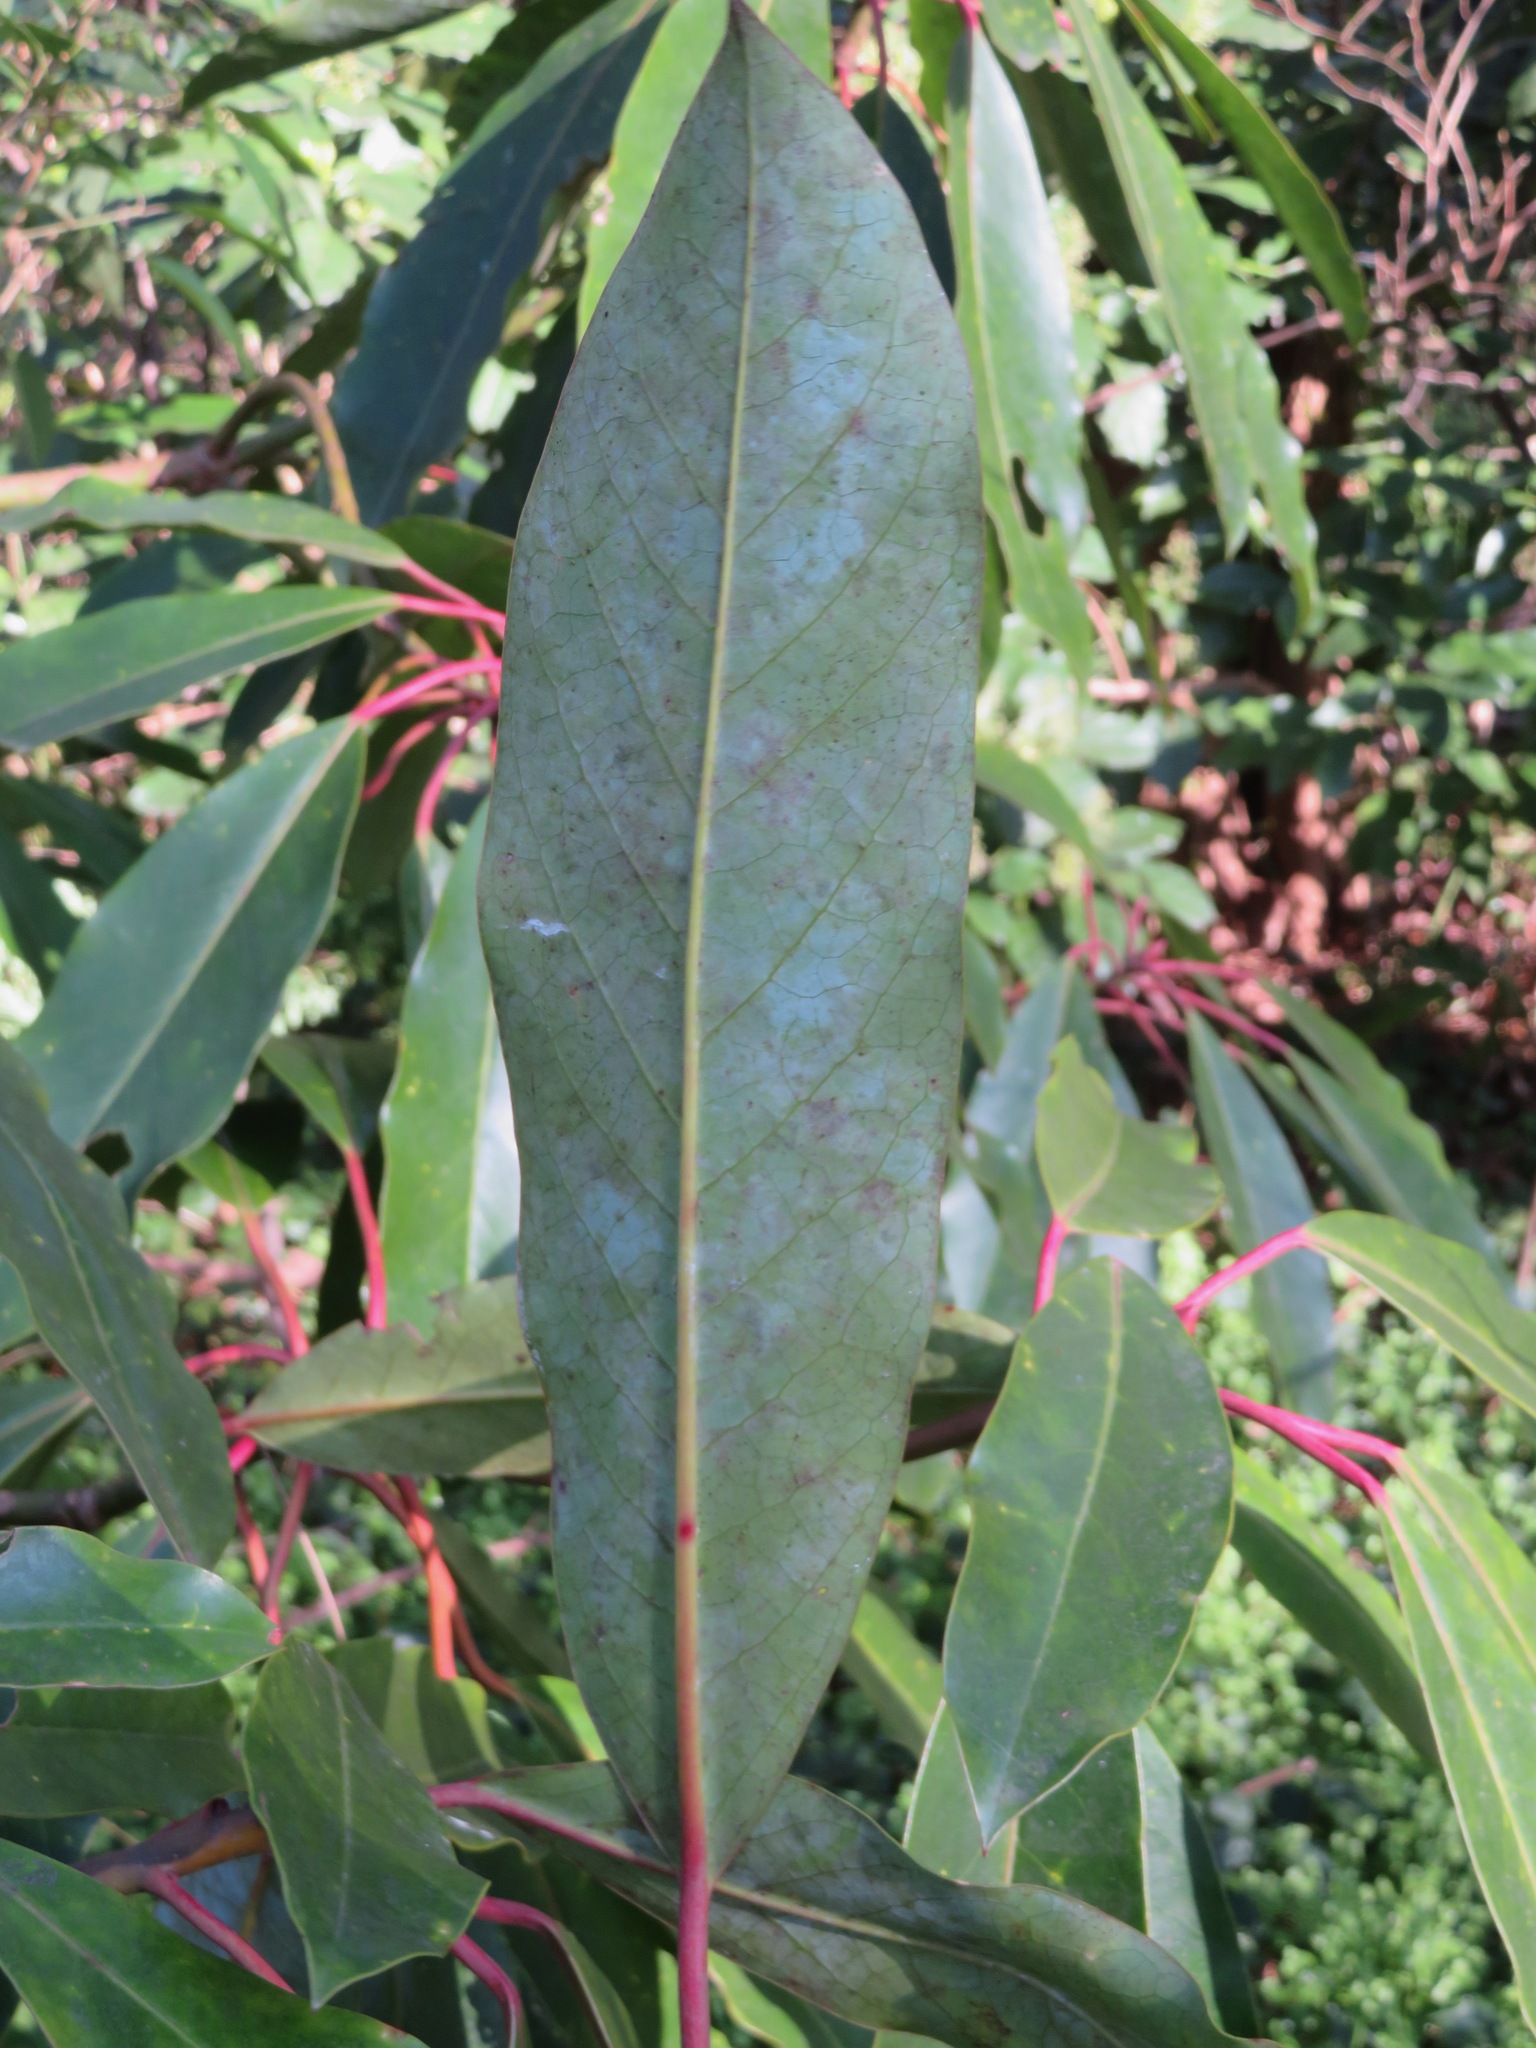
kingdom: Plantae
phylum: Tracheophyta
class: Magnoliopsida
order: Saxifragales
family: Daphniphyllaceae
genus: Daphniphyllum
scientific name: Daphniphyllum macropodum
